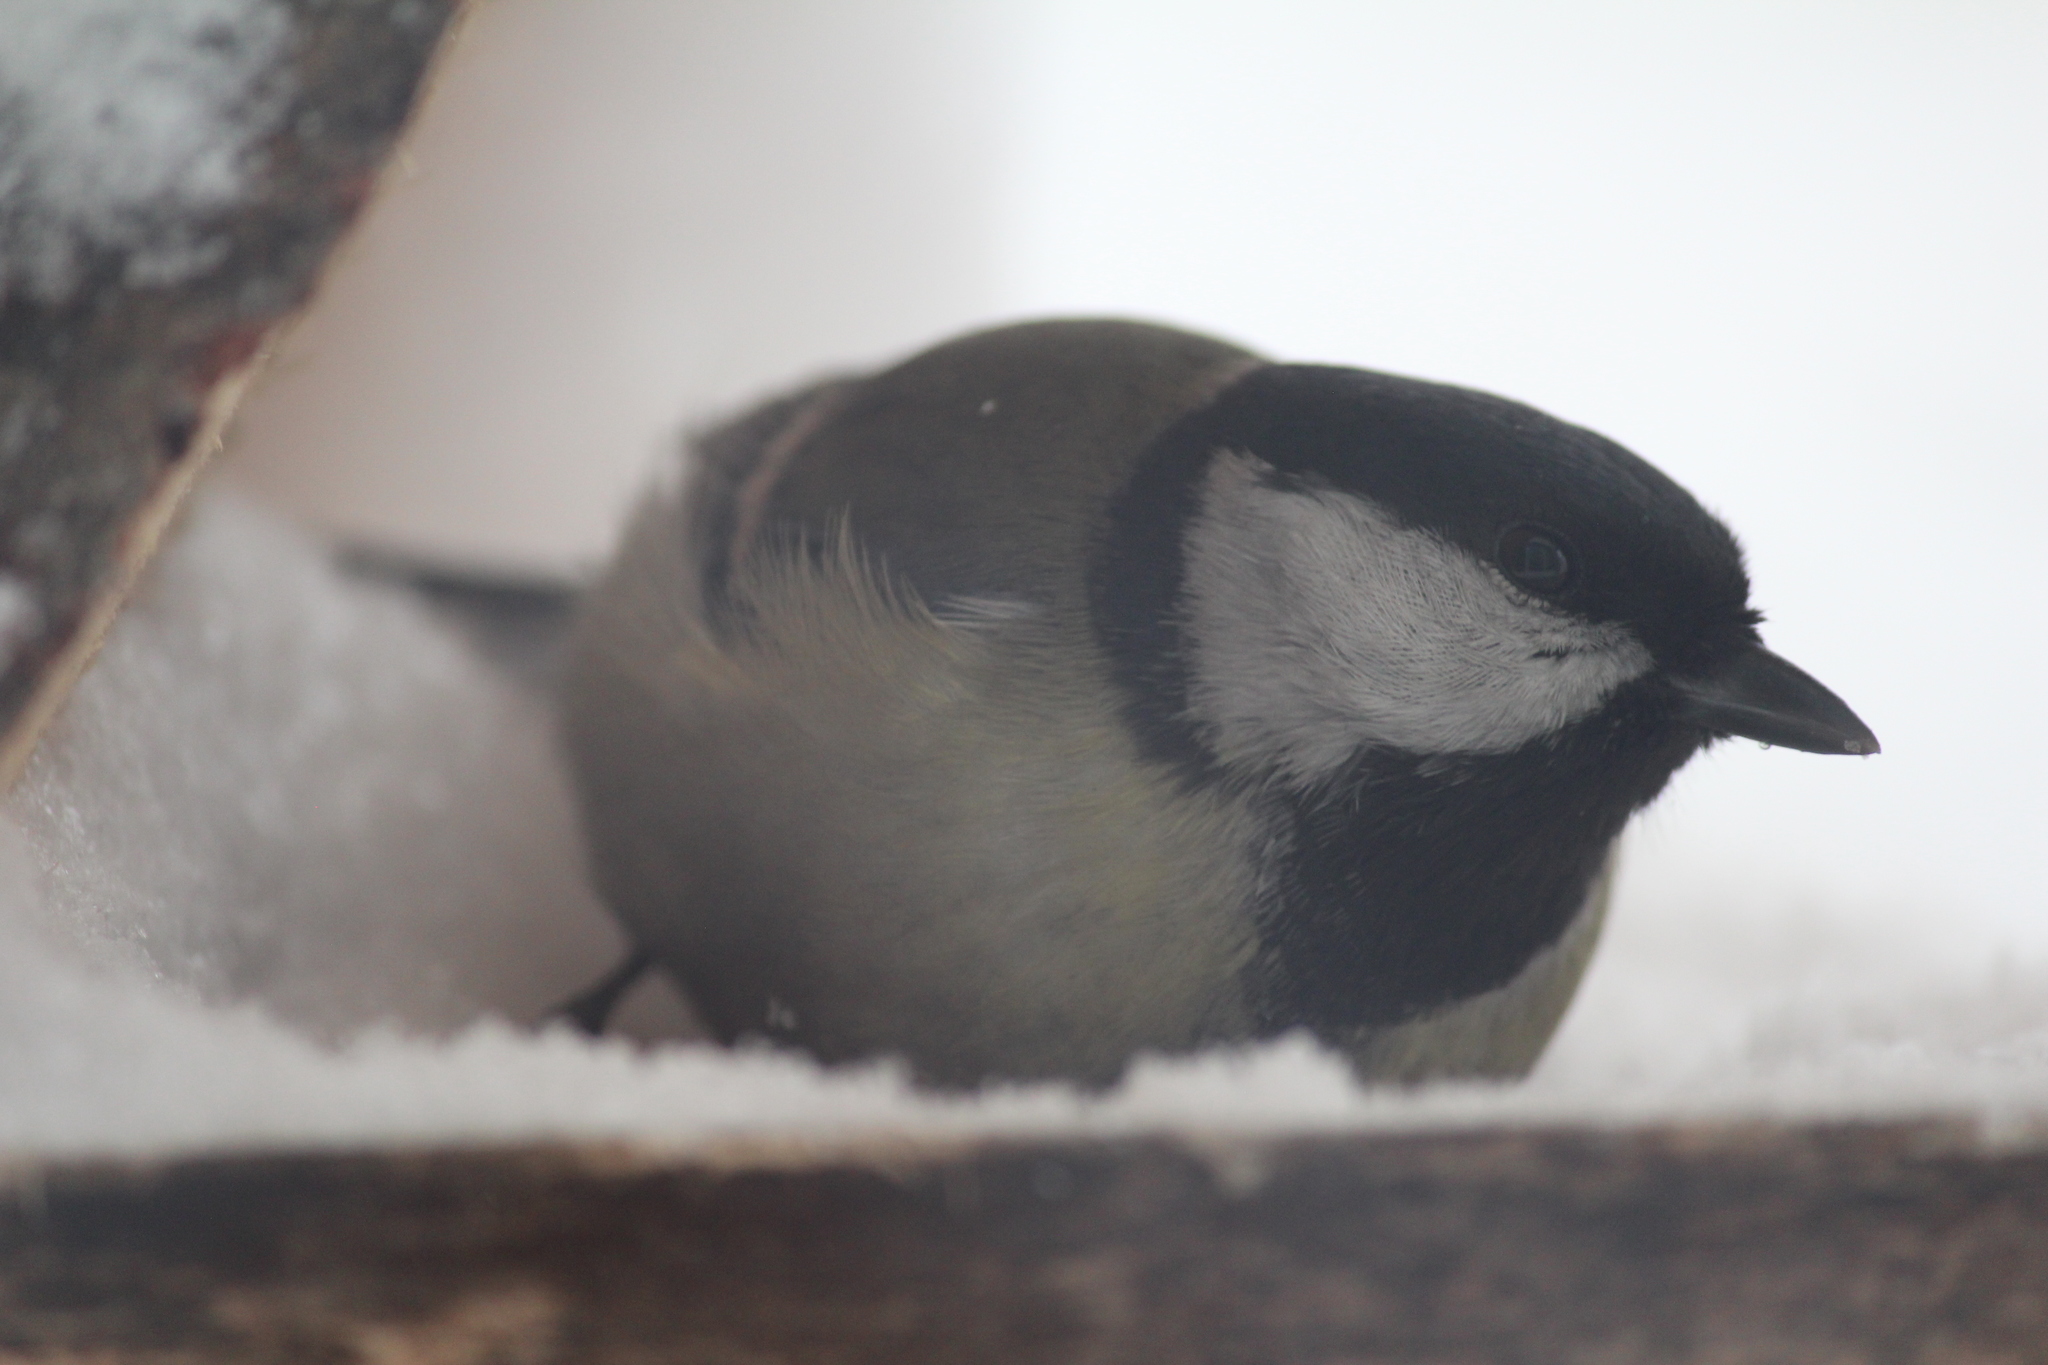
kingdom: Animalia
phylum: Chordata
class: Aves
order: Passeriformes
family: Paridae
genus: Parus
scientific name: Parus major
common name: Great tit
